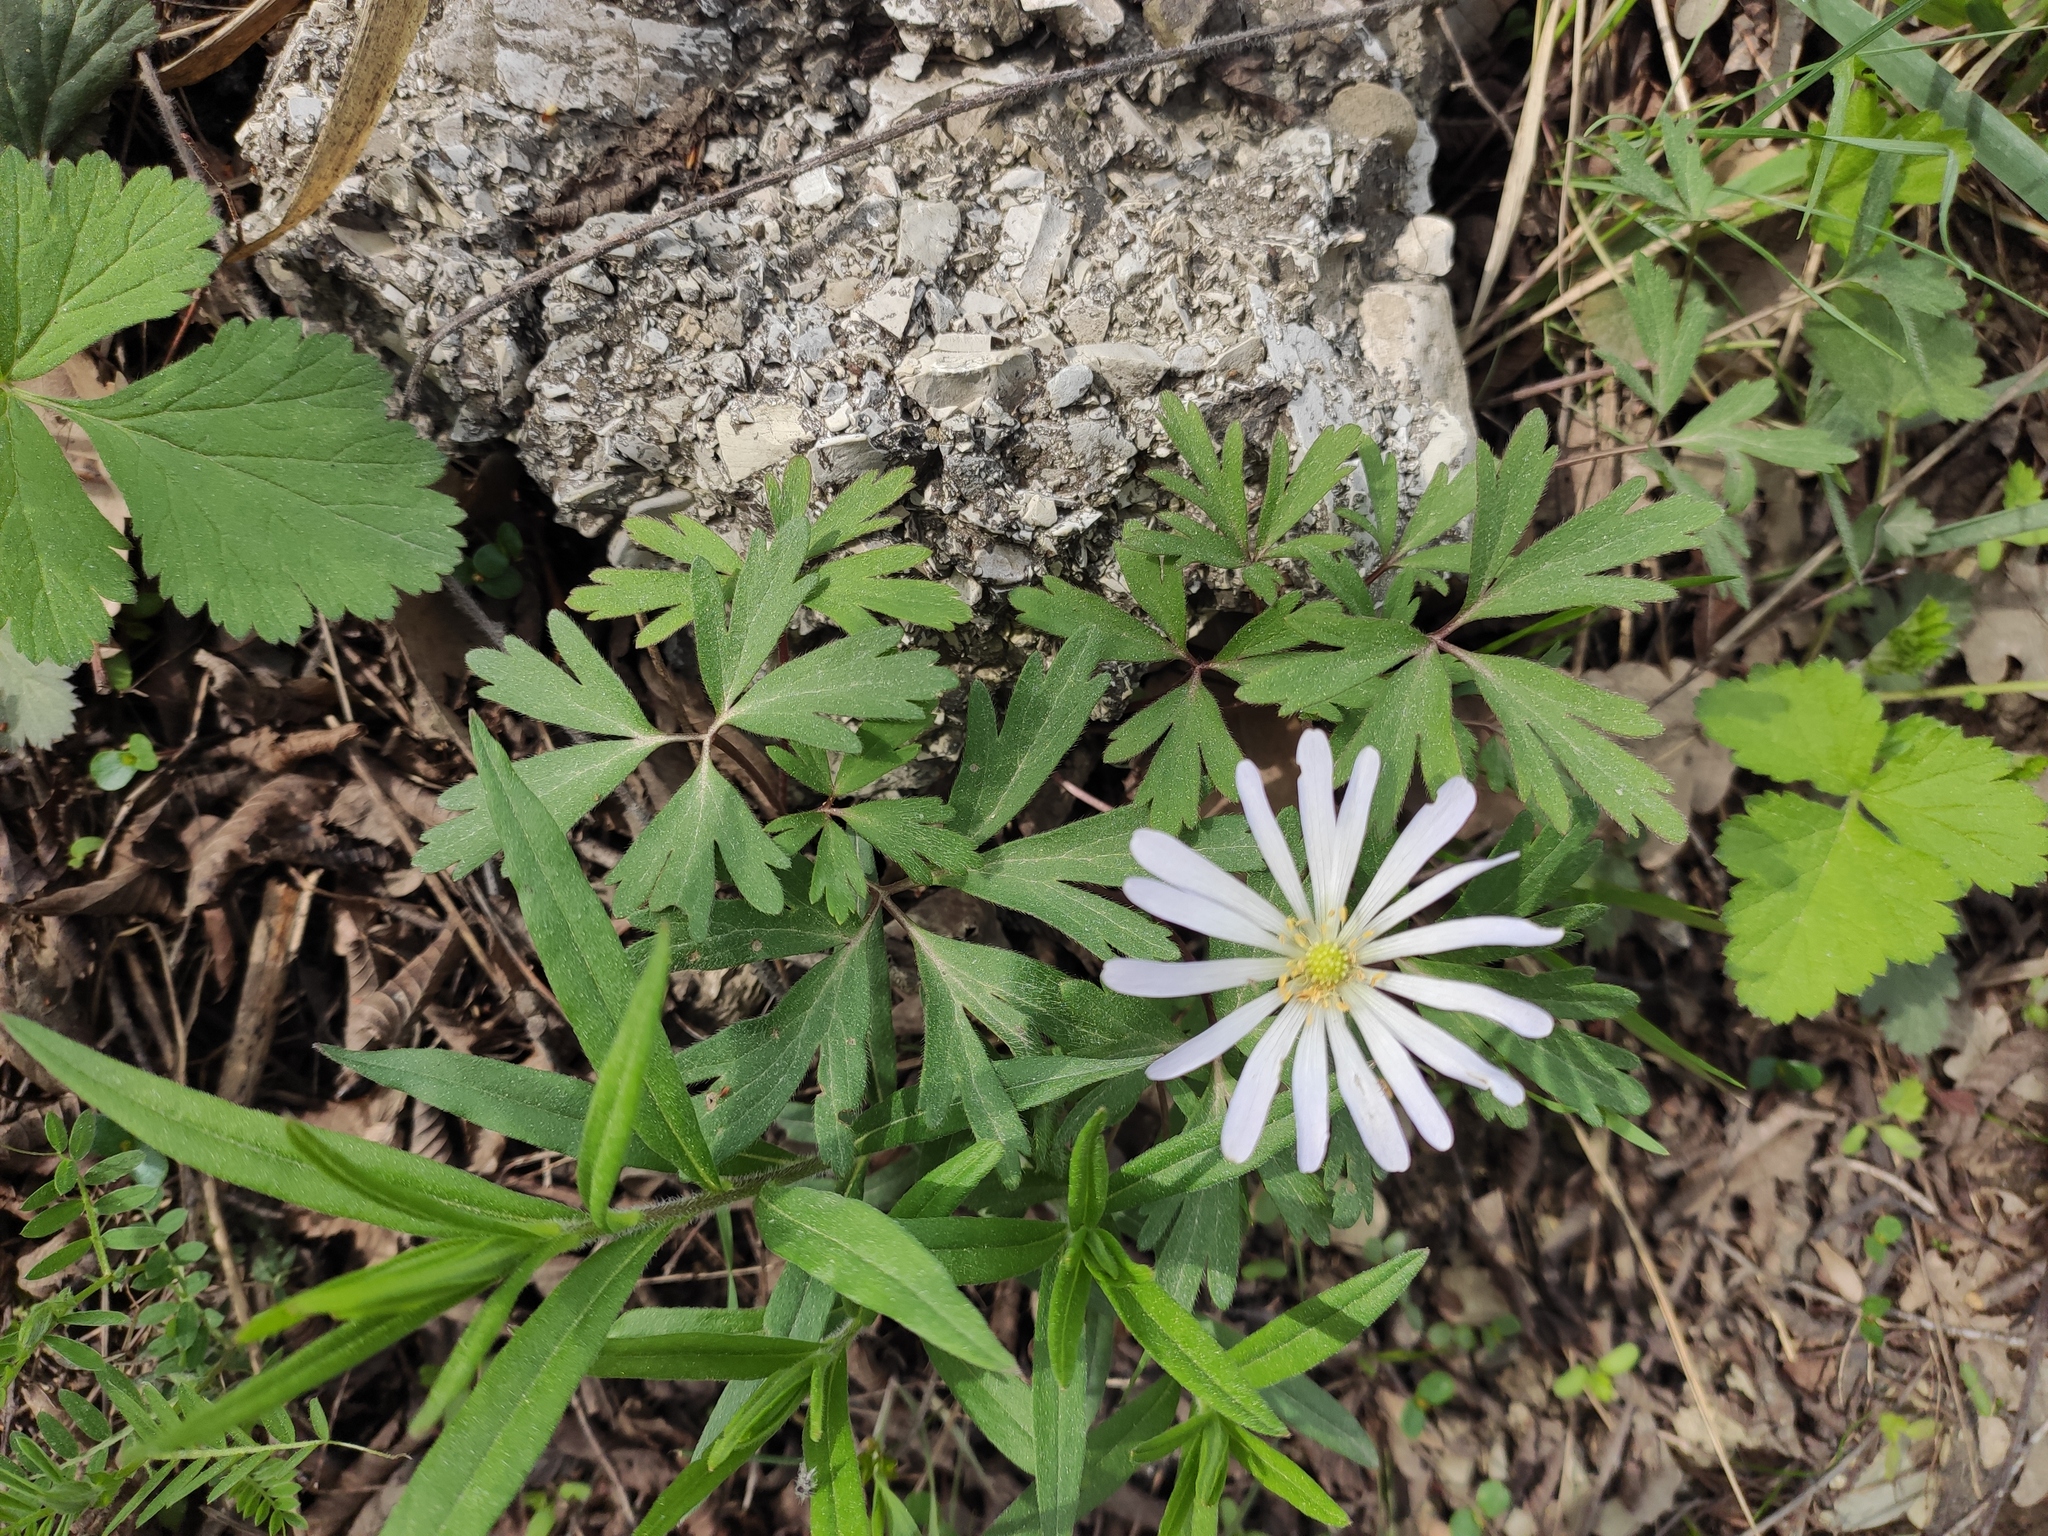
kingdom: Plantae
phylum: Tracheophyta
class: Magnoliopsida
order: Ranunculales
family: Ranunculaceae
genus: Anemone
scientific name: Anemone blanda
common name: Balkan anemone
